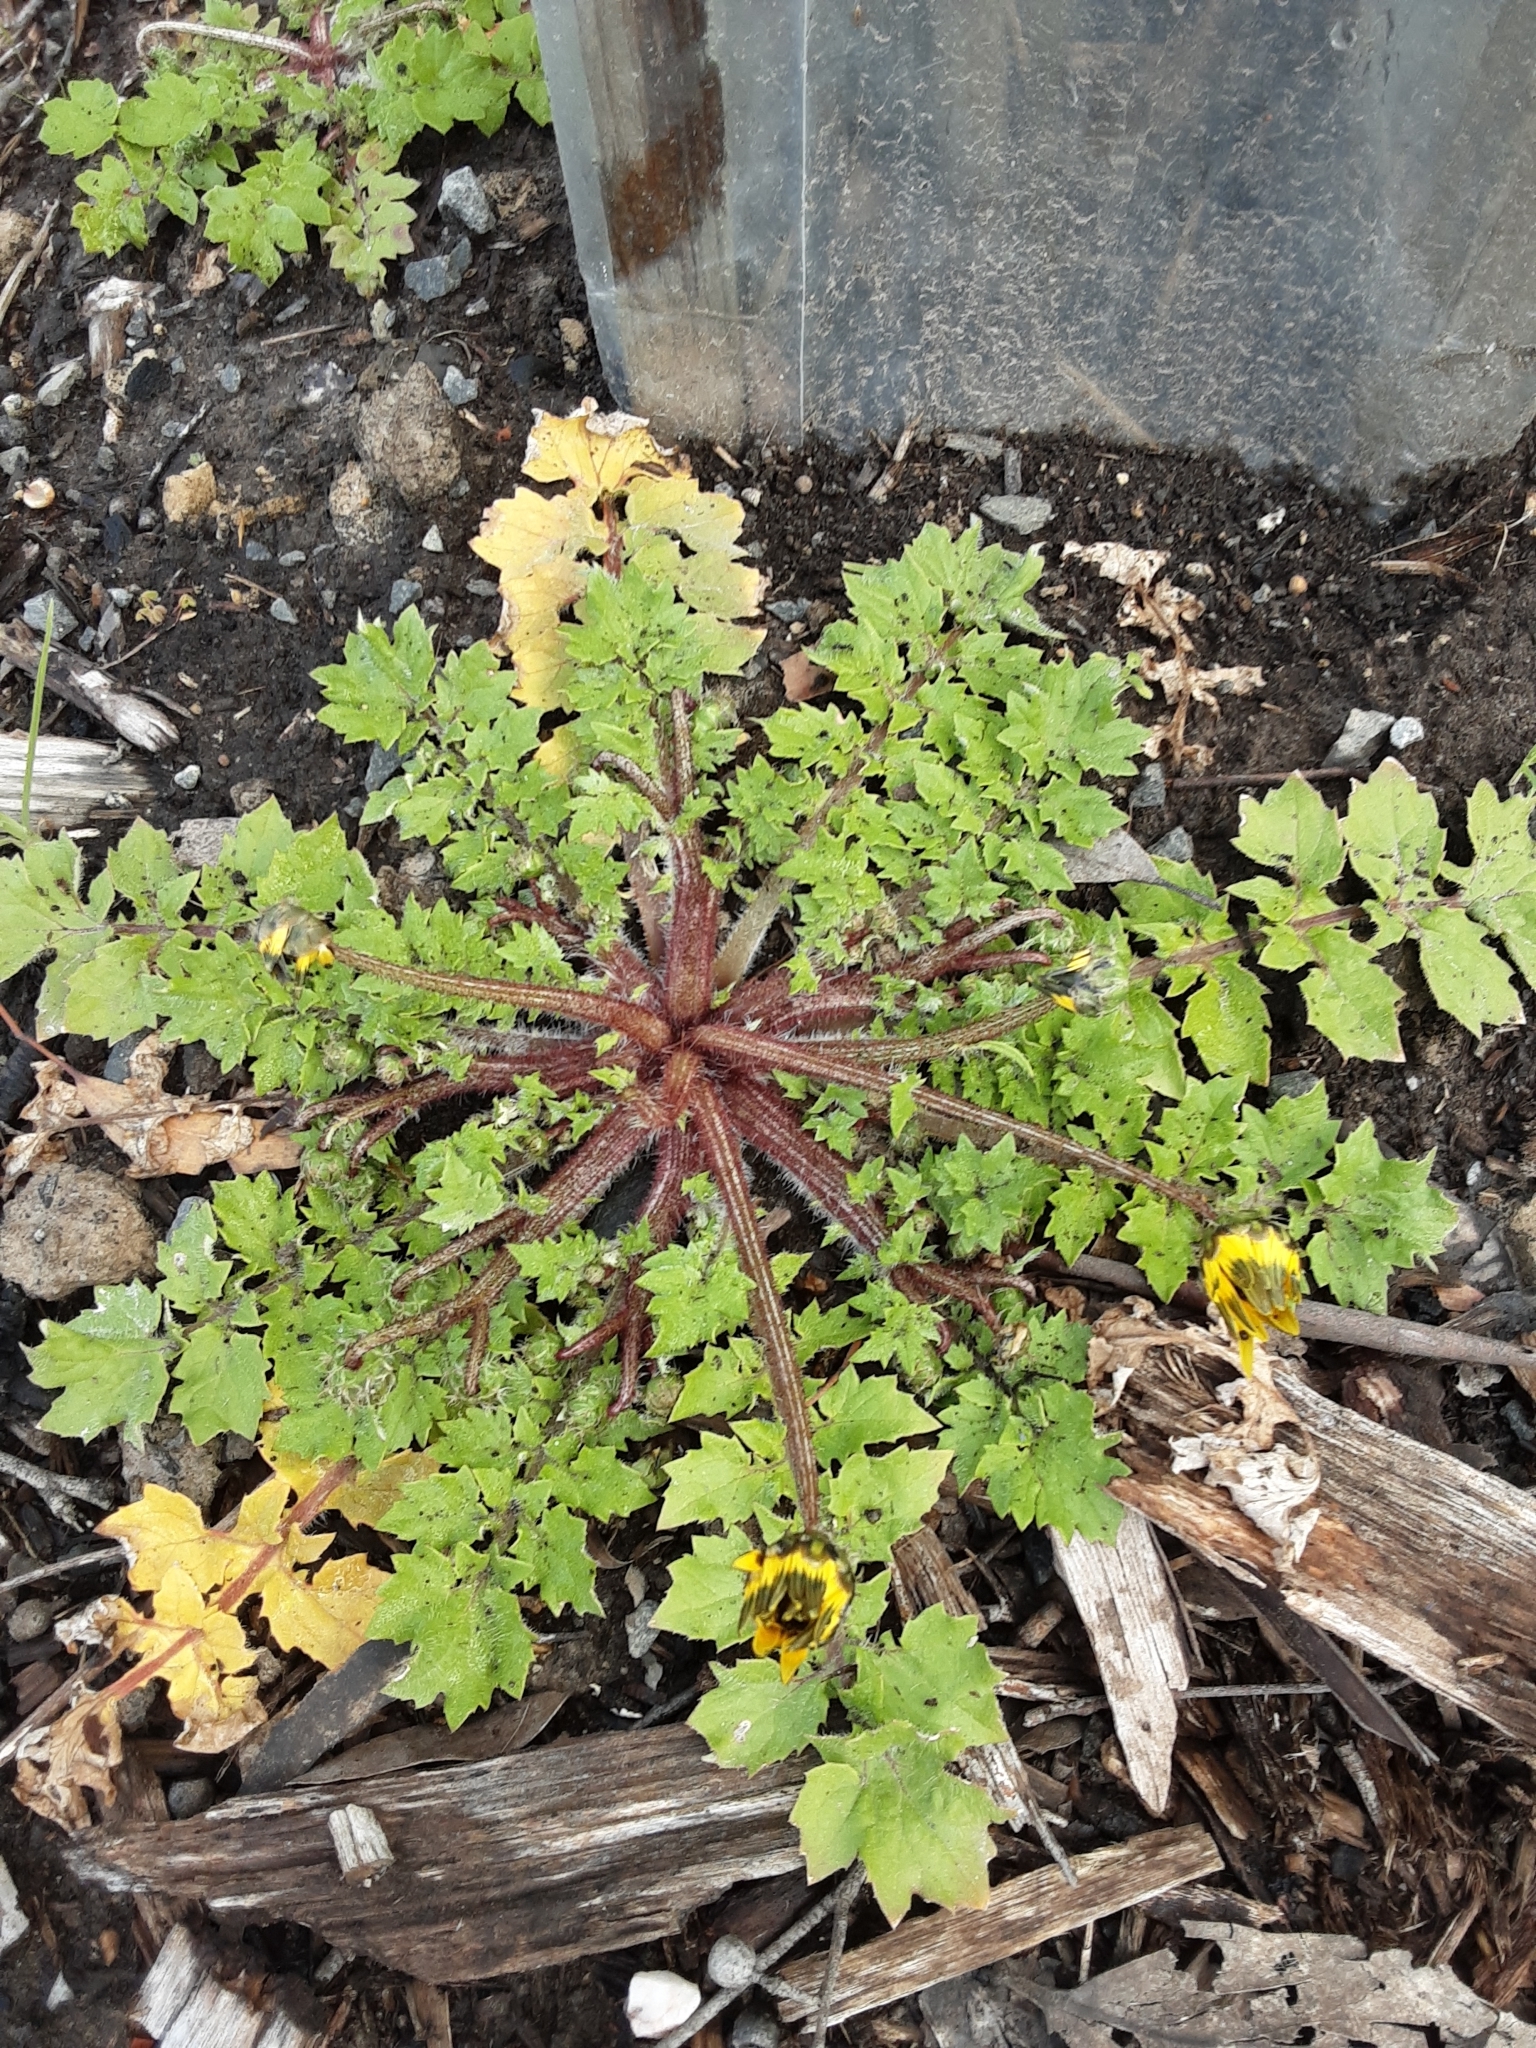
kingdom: Plantae
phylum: Tracheophyta
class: Magnoliopsida
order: Asterales
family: Asteraceae
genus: Arctotheca
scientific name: Arctotheca calendula
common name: Capeweed
